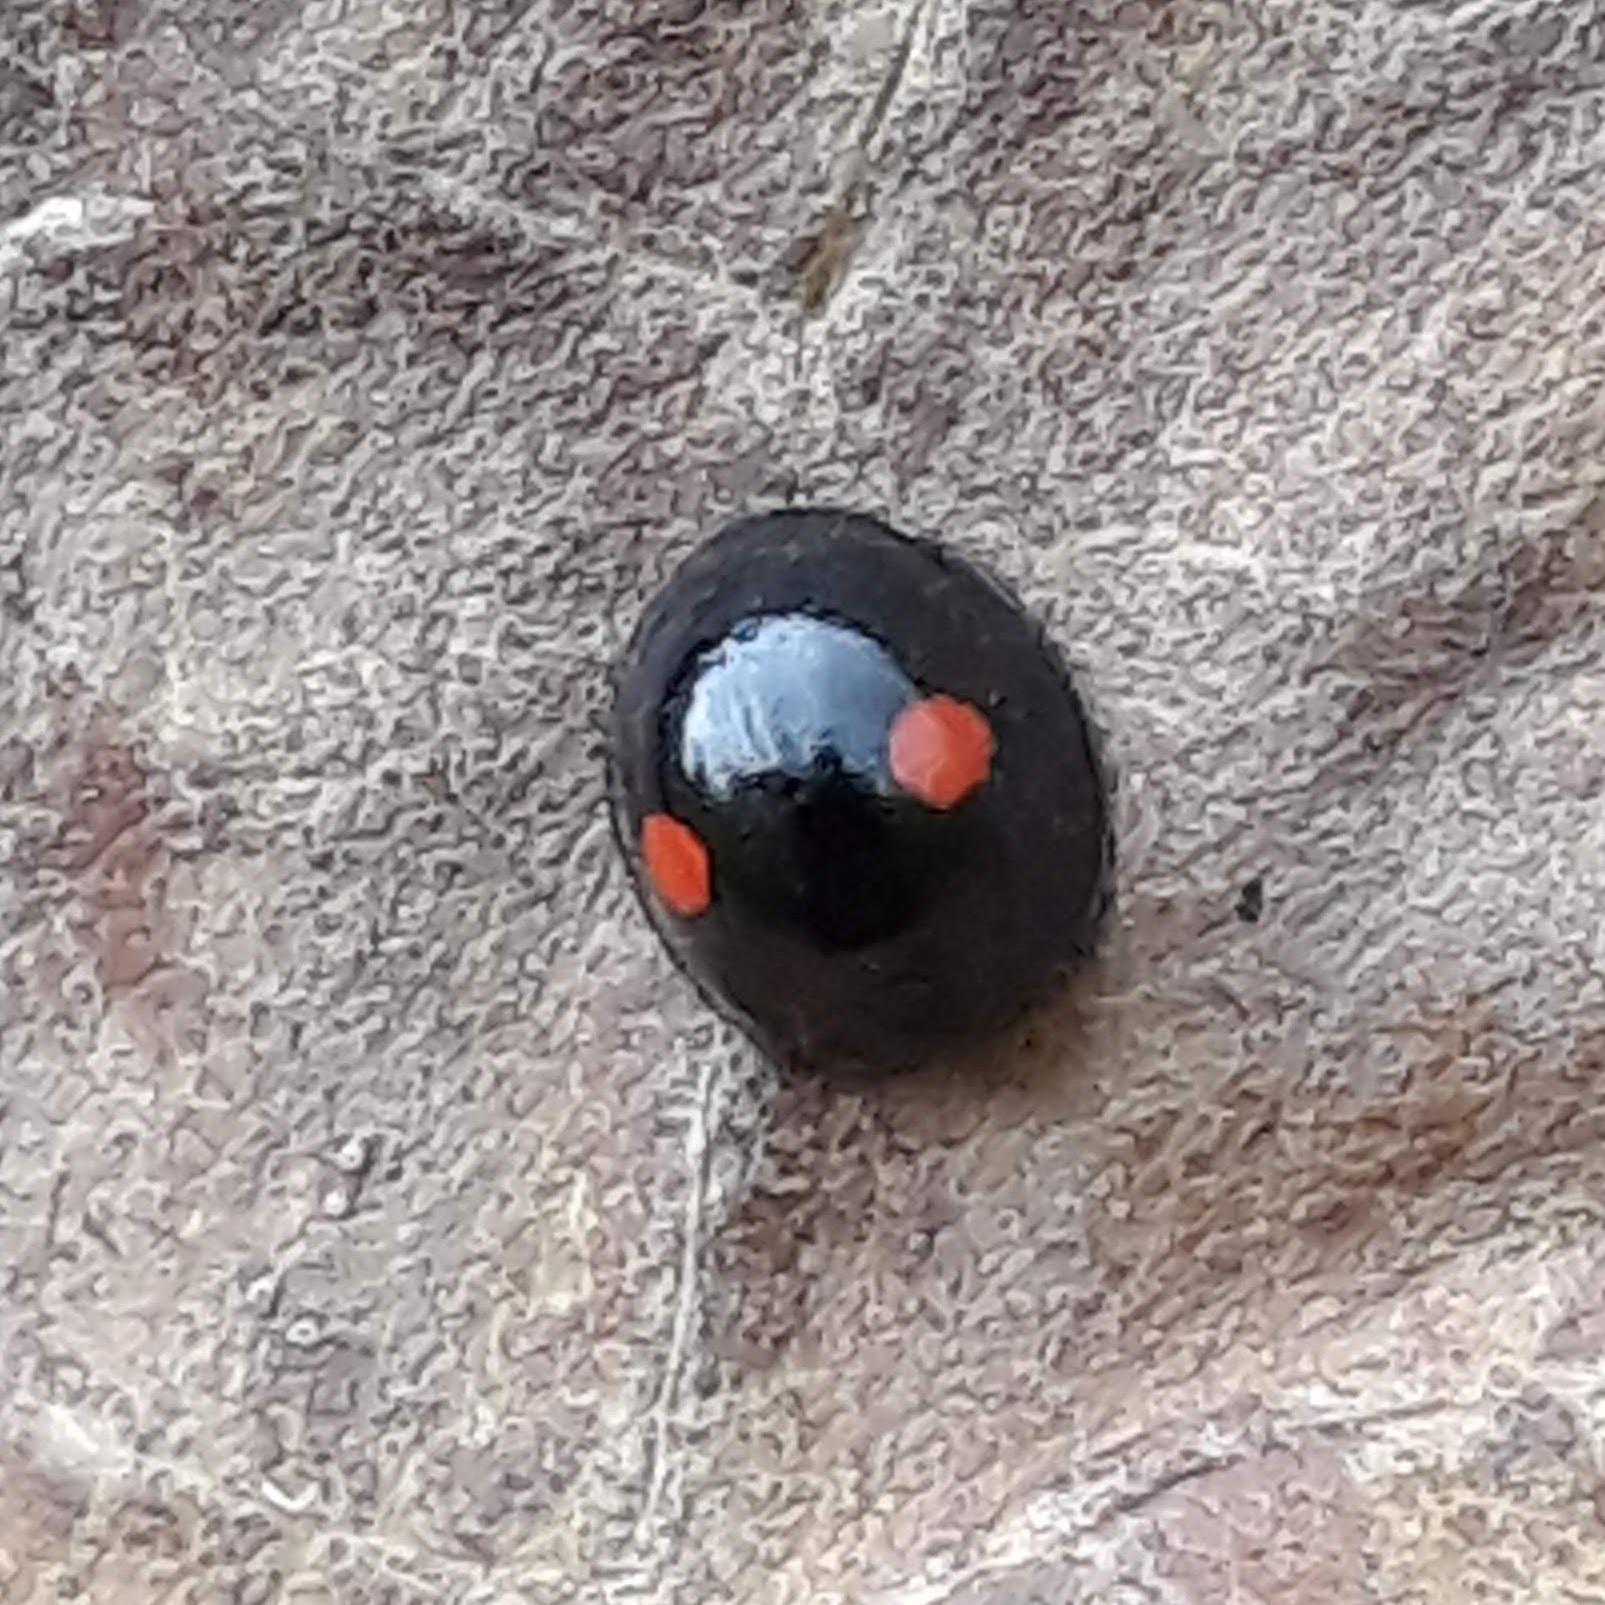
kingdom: Animalia
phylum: Arthropoda
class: Insecta
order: Coleoptera
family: Coccinellidae
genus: Chilocorus
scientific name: Chilocorus stigma
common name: Twicestabbed lady beetle
